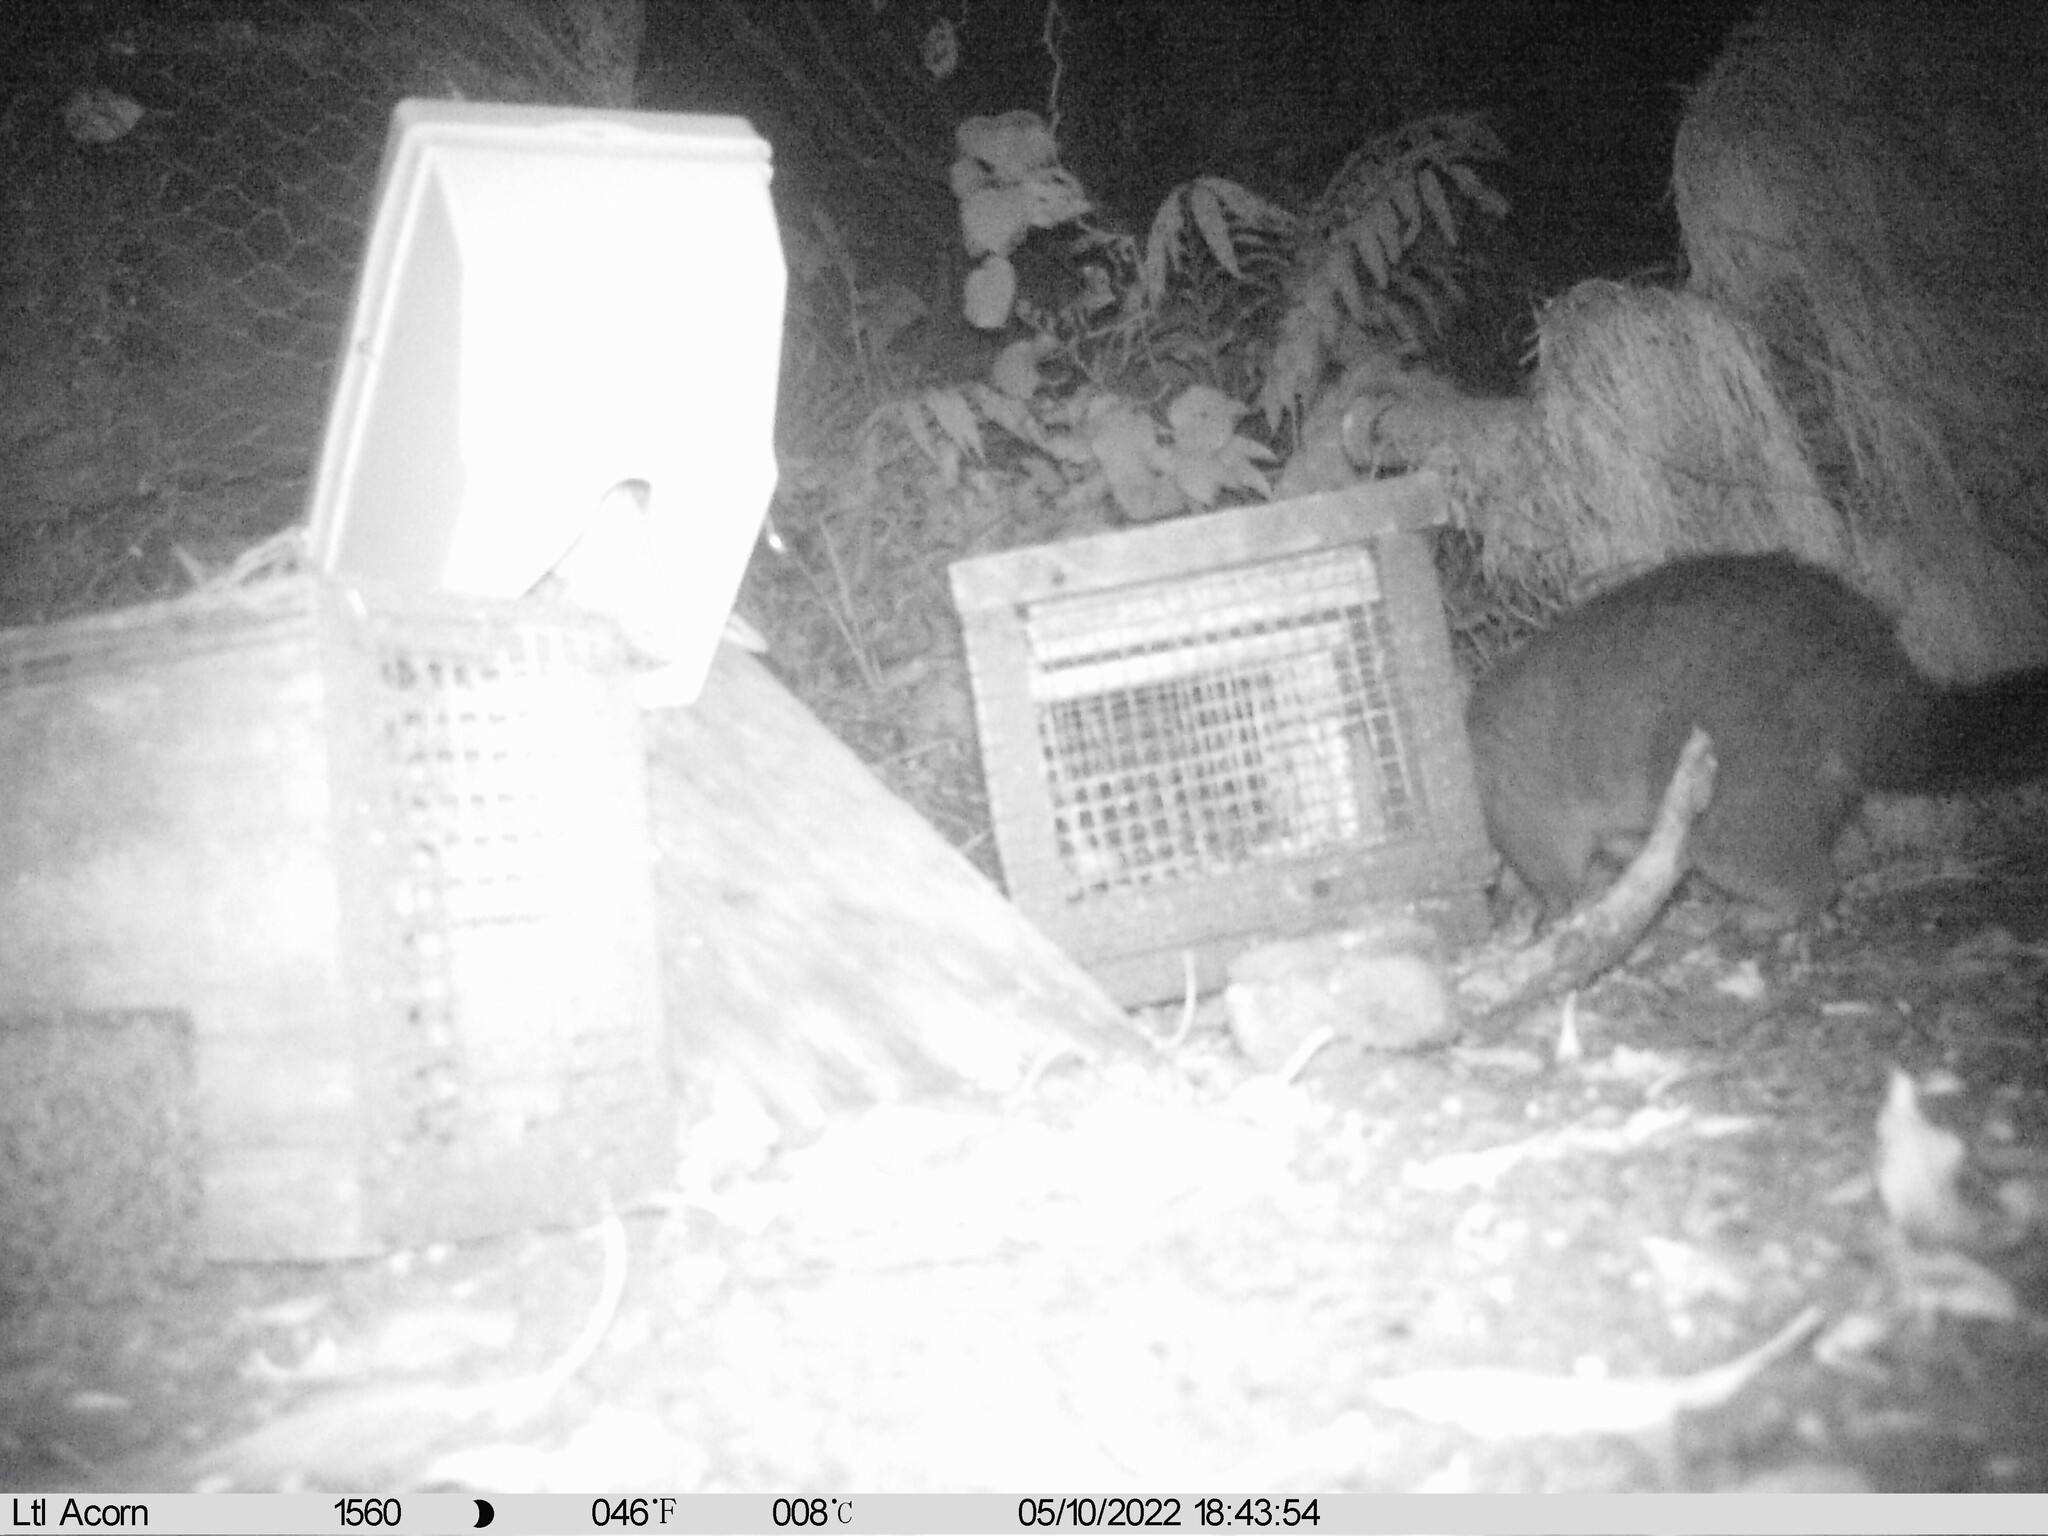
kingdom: Animalia
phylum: Chordata
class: Mammalia
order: Diprotodontia
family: Phalangeridae
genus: Trichosurus
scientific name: Trichosurus vulpecula
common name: Common brushtail
